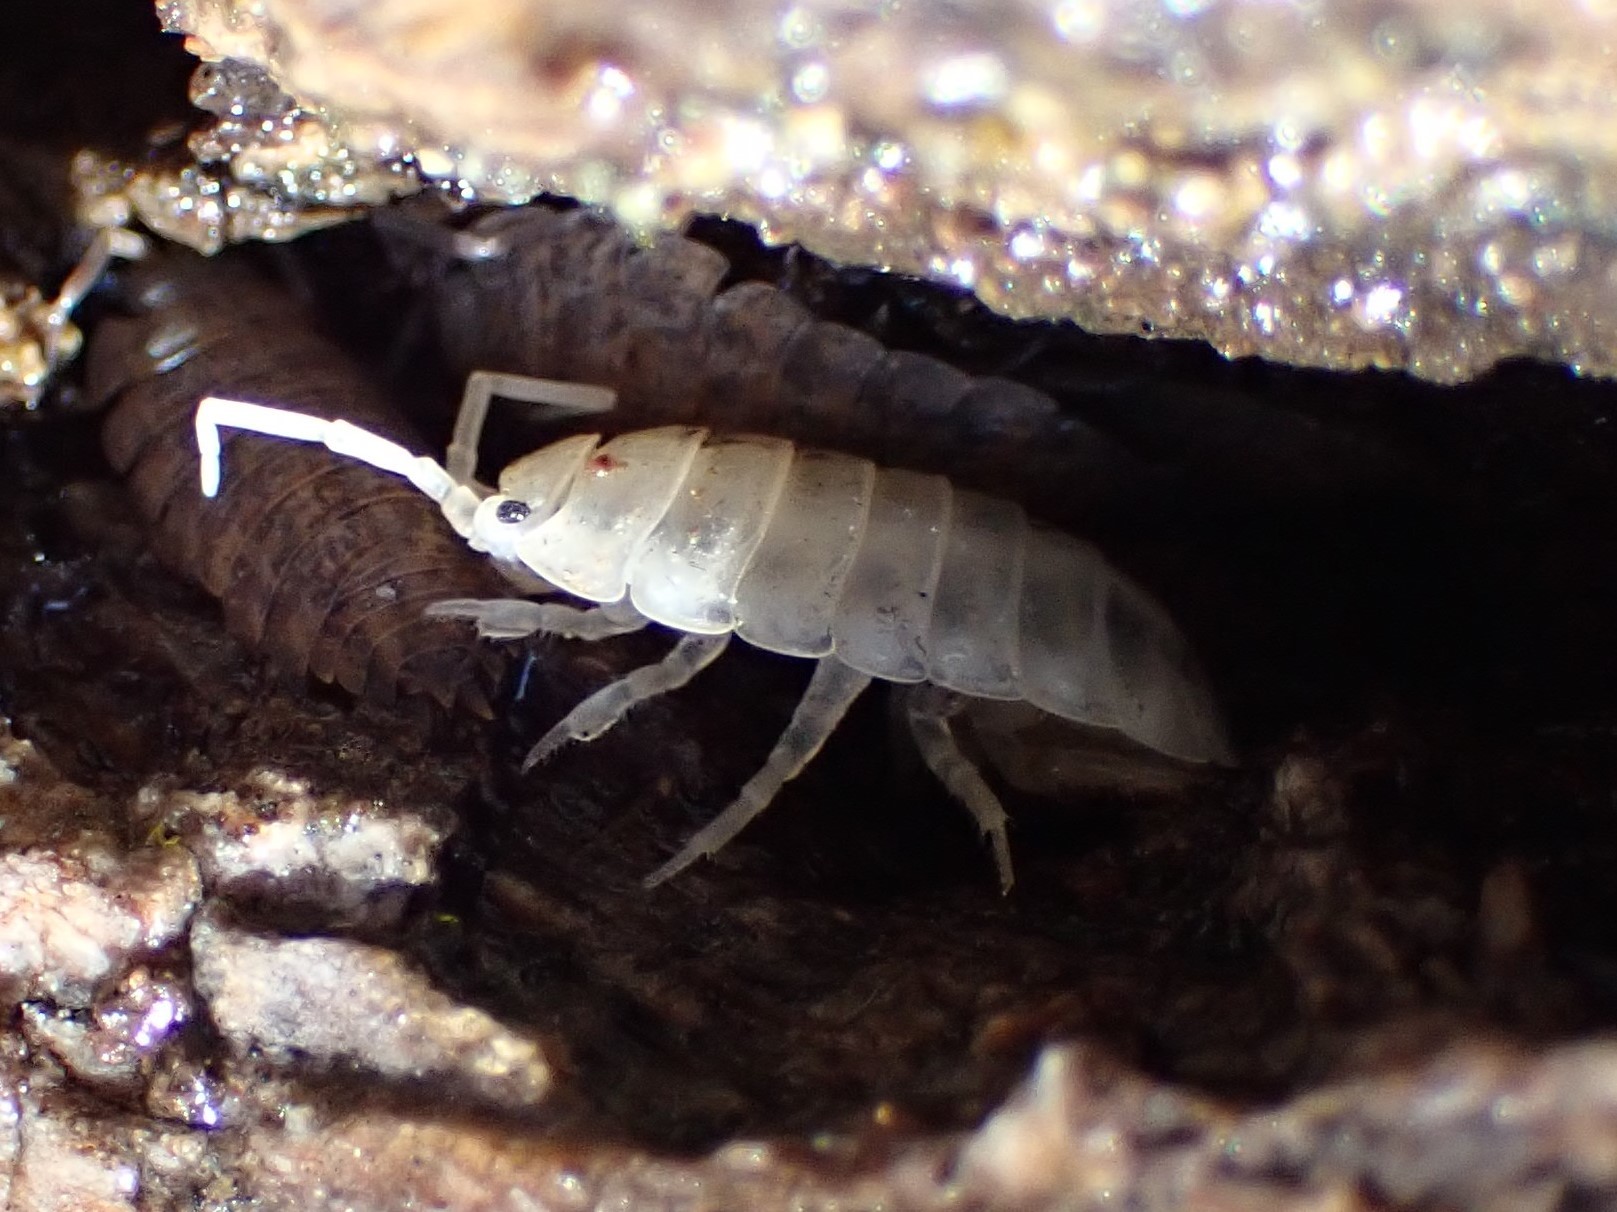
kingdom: Animalia
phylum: Arthropoda
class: Malacostraca
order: Isopoda
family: Trachelipodidae
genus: Trachelipus
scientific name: Trachelipus rathkii
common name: Isopod
